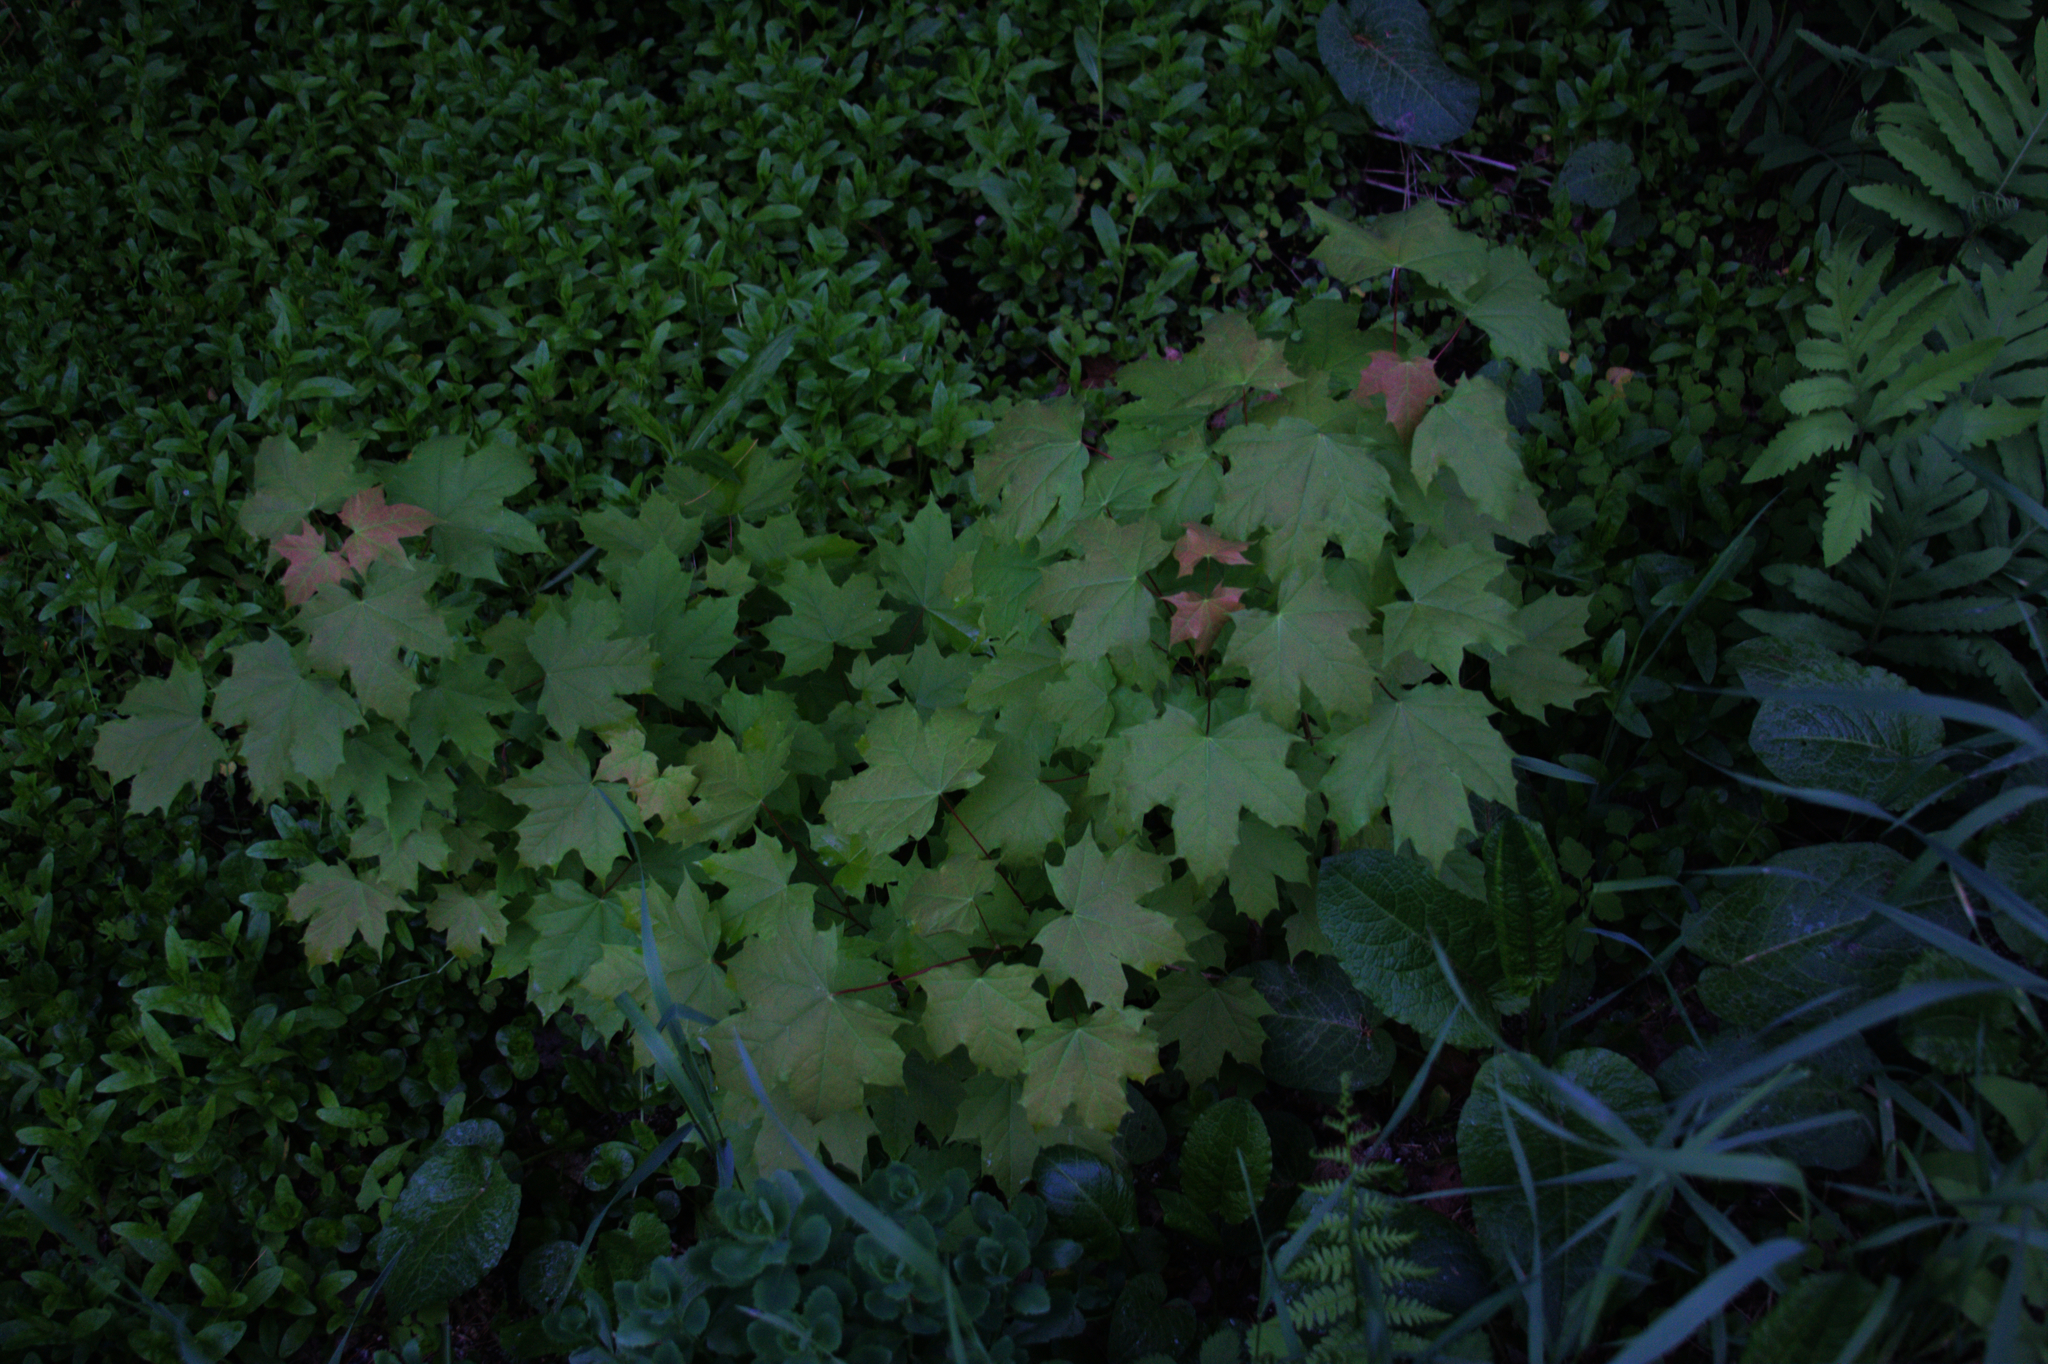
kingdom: Plantae
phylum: Tracheophyta
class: Magnoliopsida
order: Sapindales
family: Sapindaceae
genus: Acer
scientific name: Acer saccharum
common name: Sugar maple
